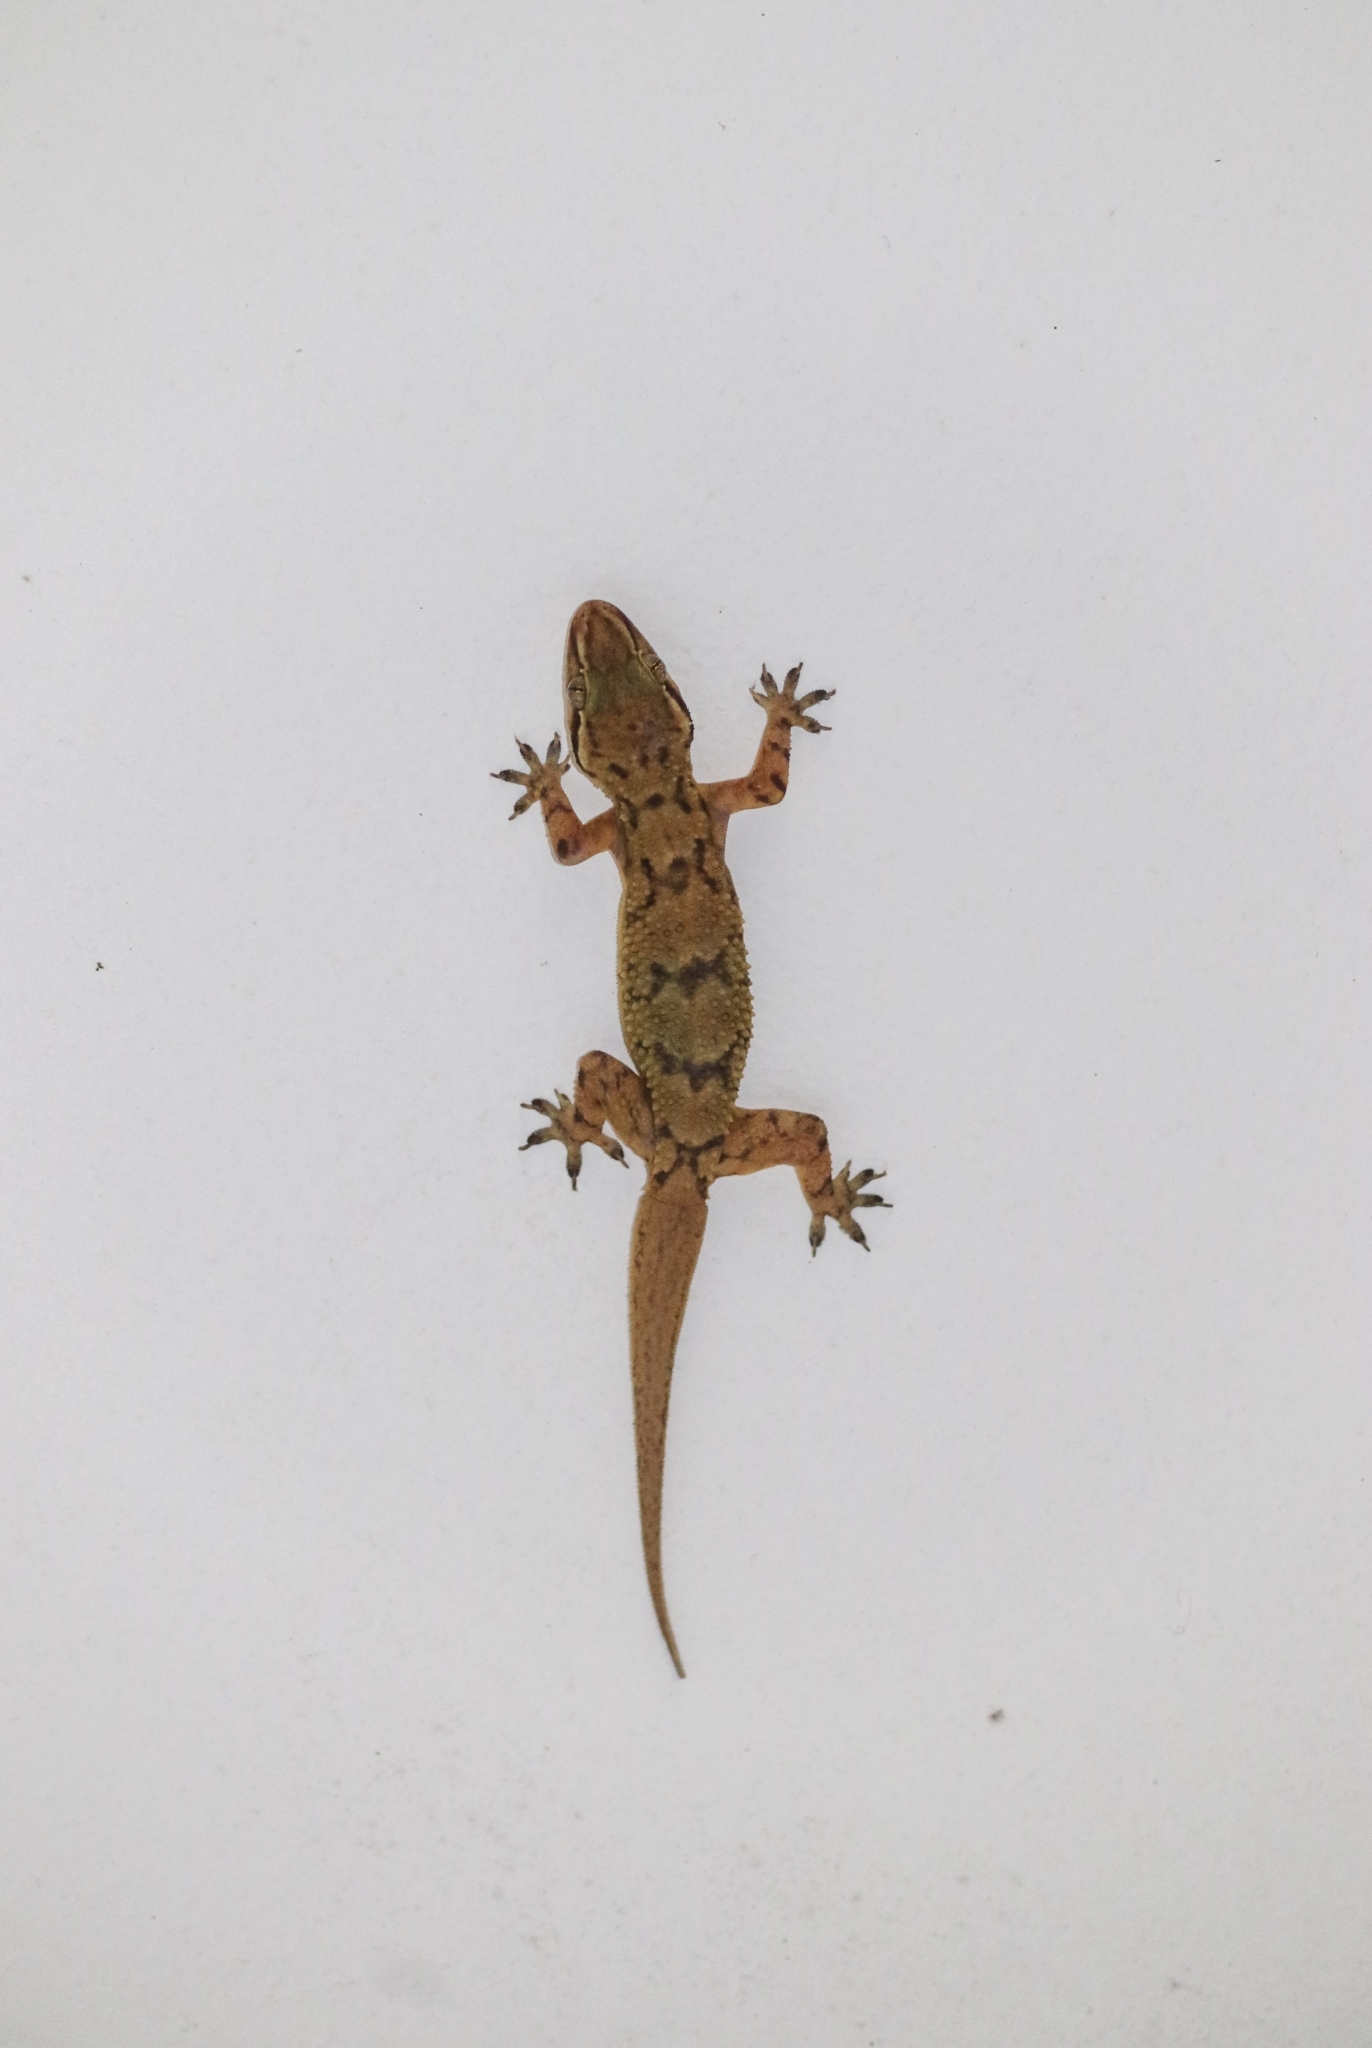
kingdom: Animalia
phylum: Chordata
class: Squamata
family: Gekkonidae
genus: Hemidactylus
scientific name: Hemidactylus depressus
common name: Srilanka leaf-toed gecko
